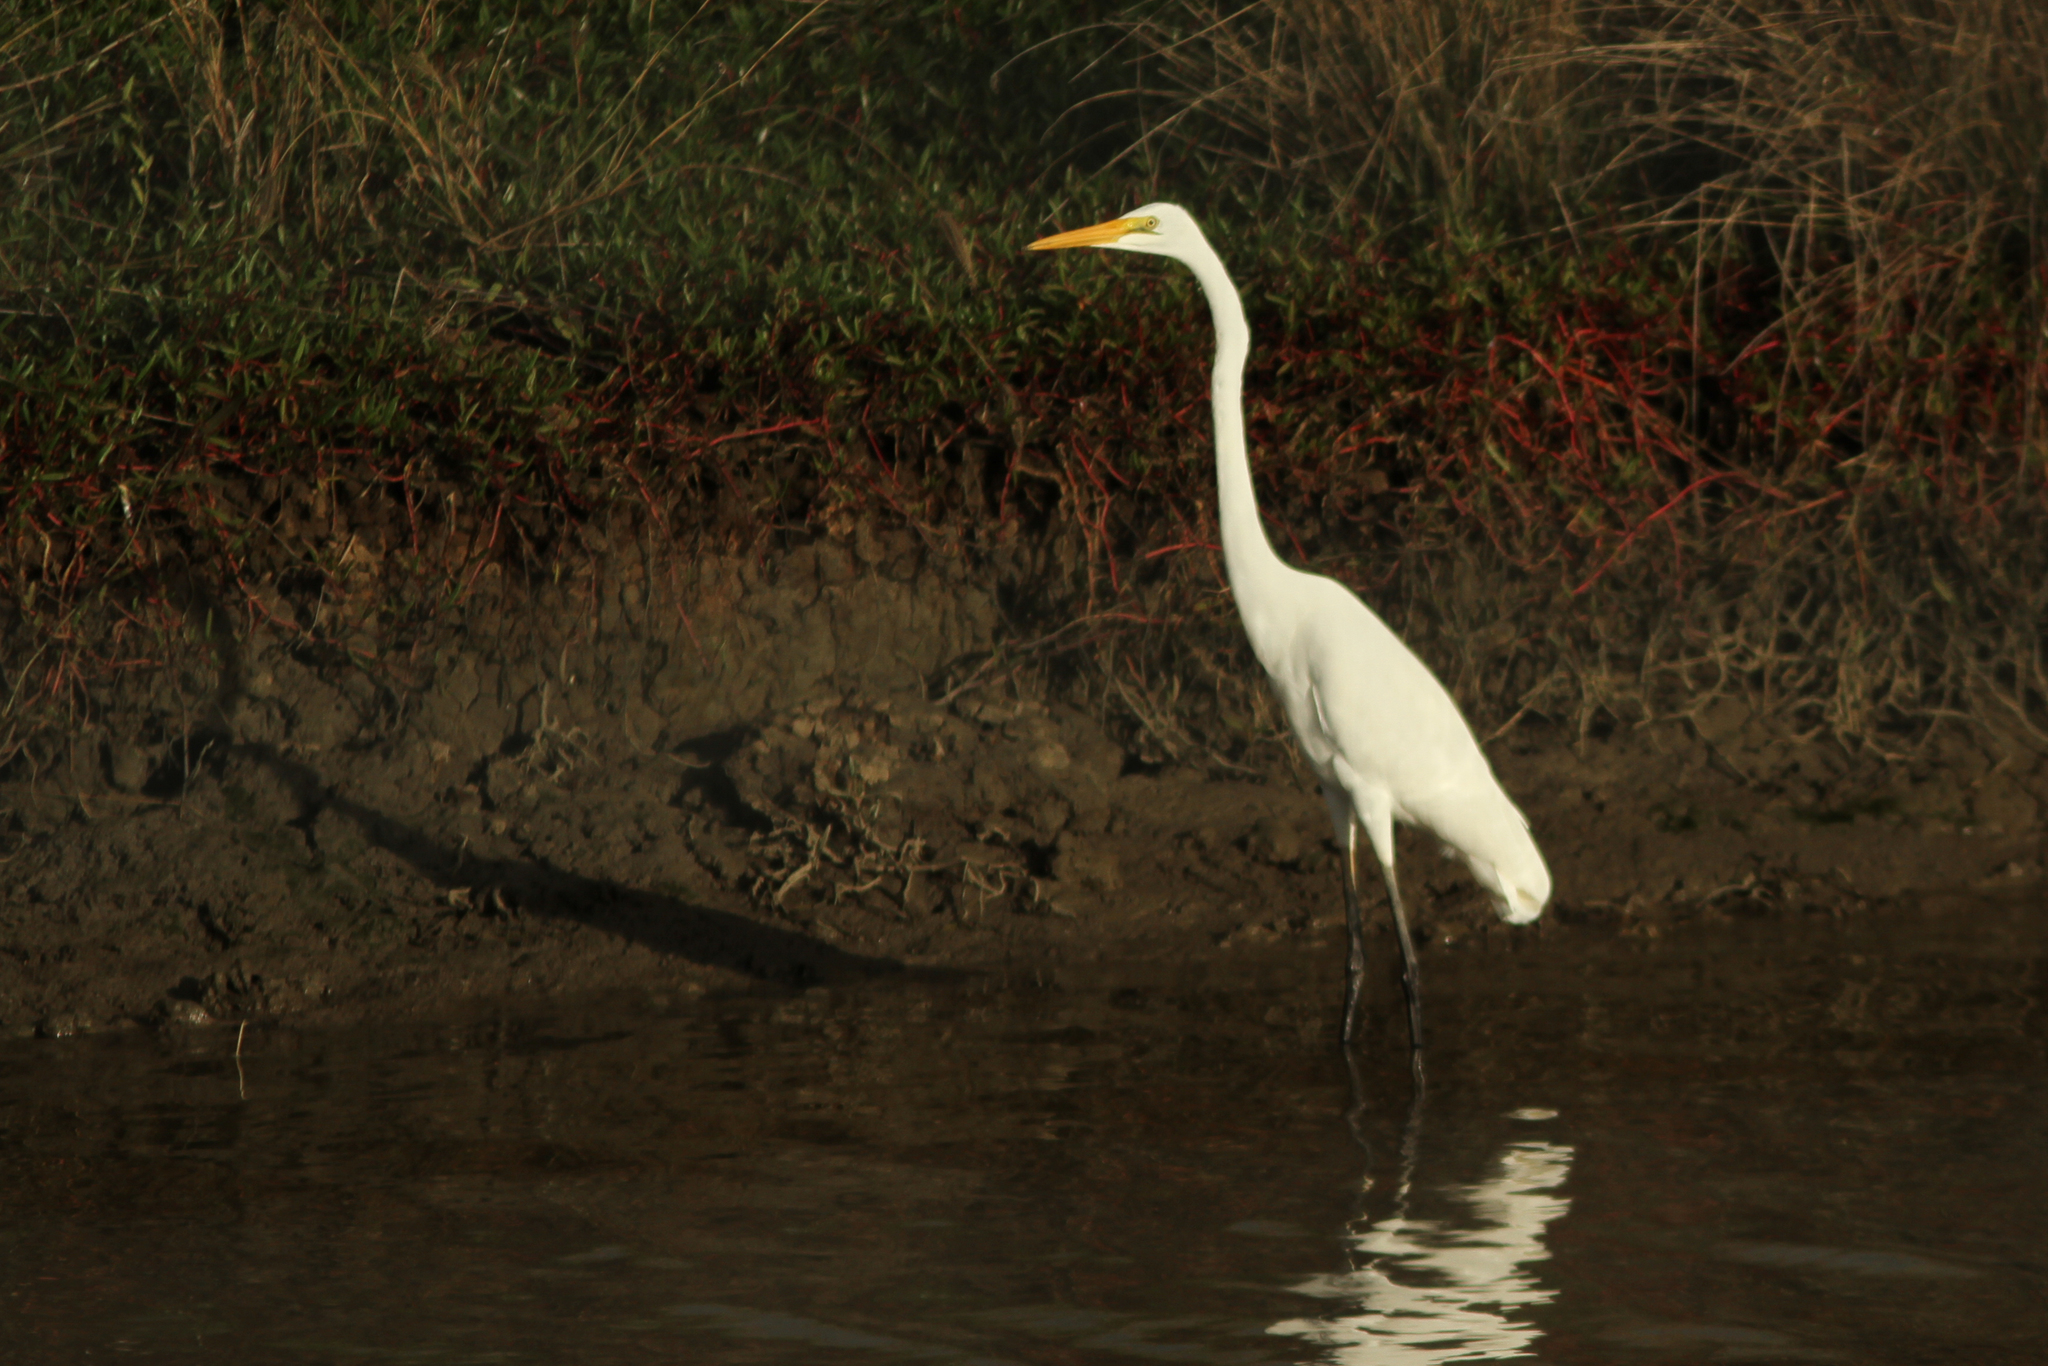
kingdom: Animalia
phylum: Chordata
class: Aves
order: Pelecaniformes
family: Ardeidae
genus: Ardea
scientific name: Ardea alba
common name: Great egret
